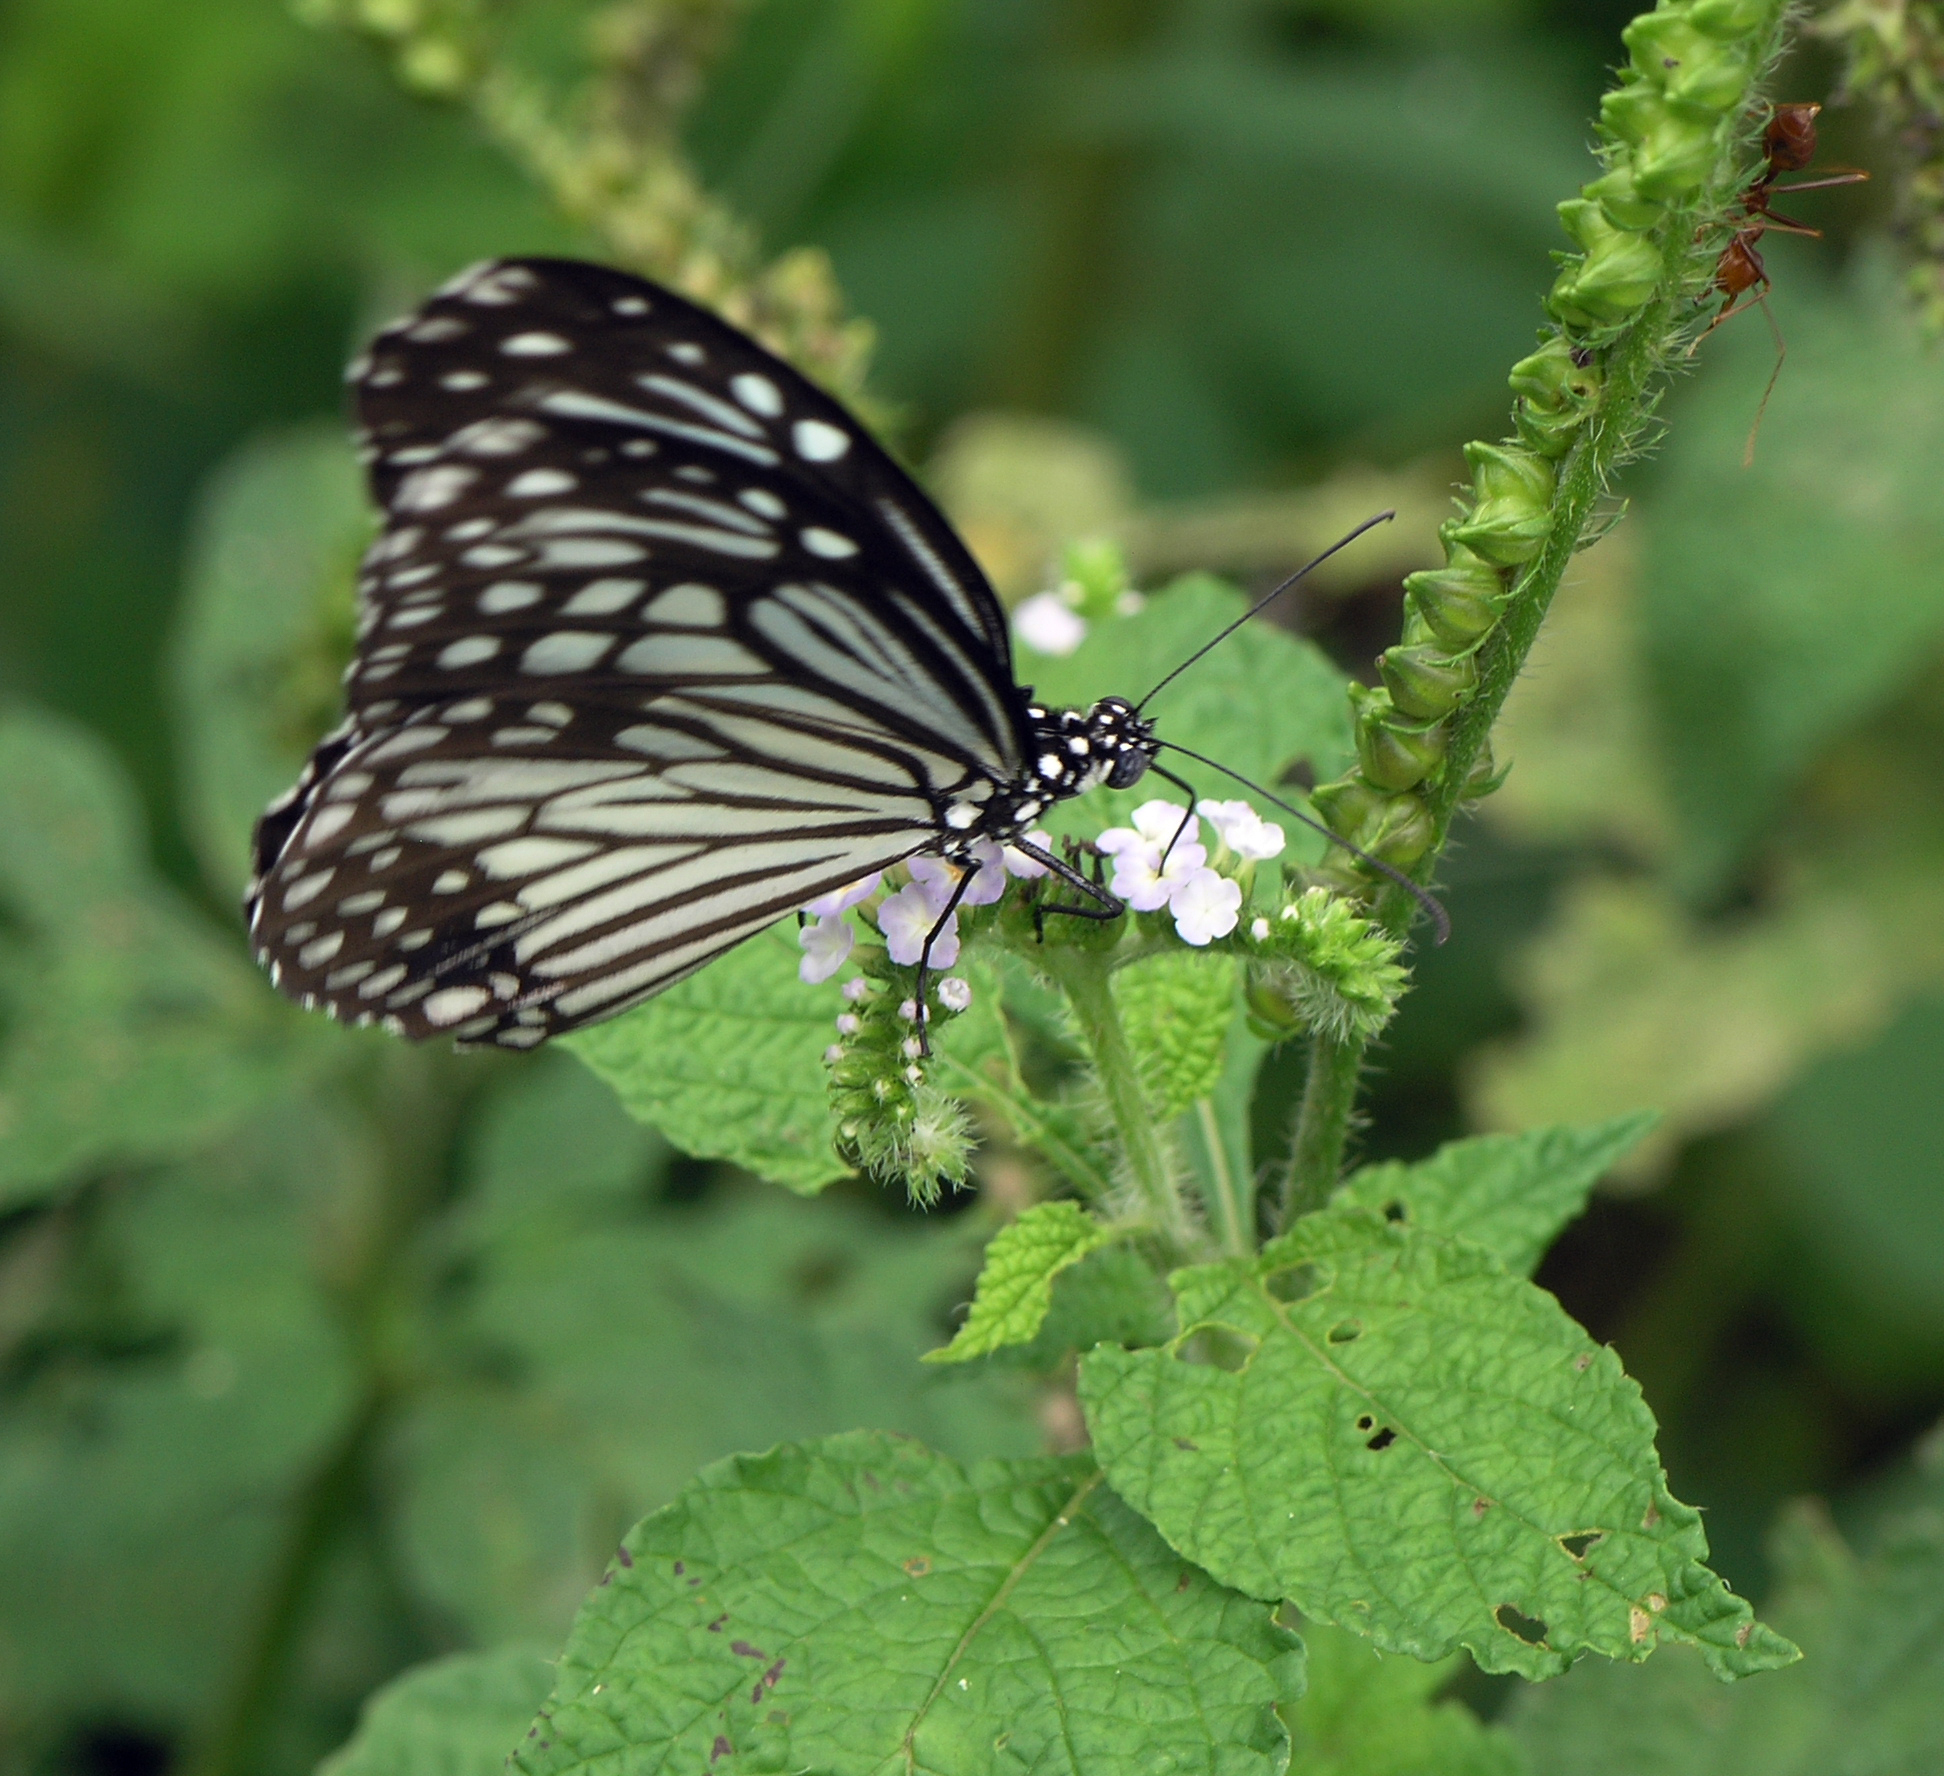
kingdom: Animalia
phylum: Arthropoda
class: Insecta
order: Lepidoptera
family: Nymphalidae
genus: Parantica
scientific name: Parantica aglea
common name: Glassy tiger
